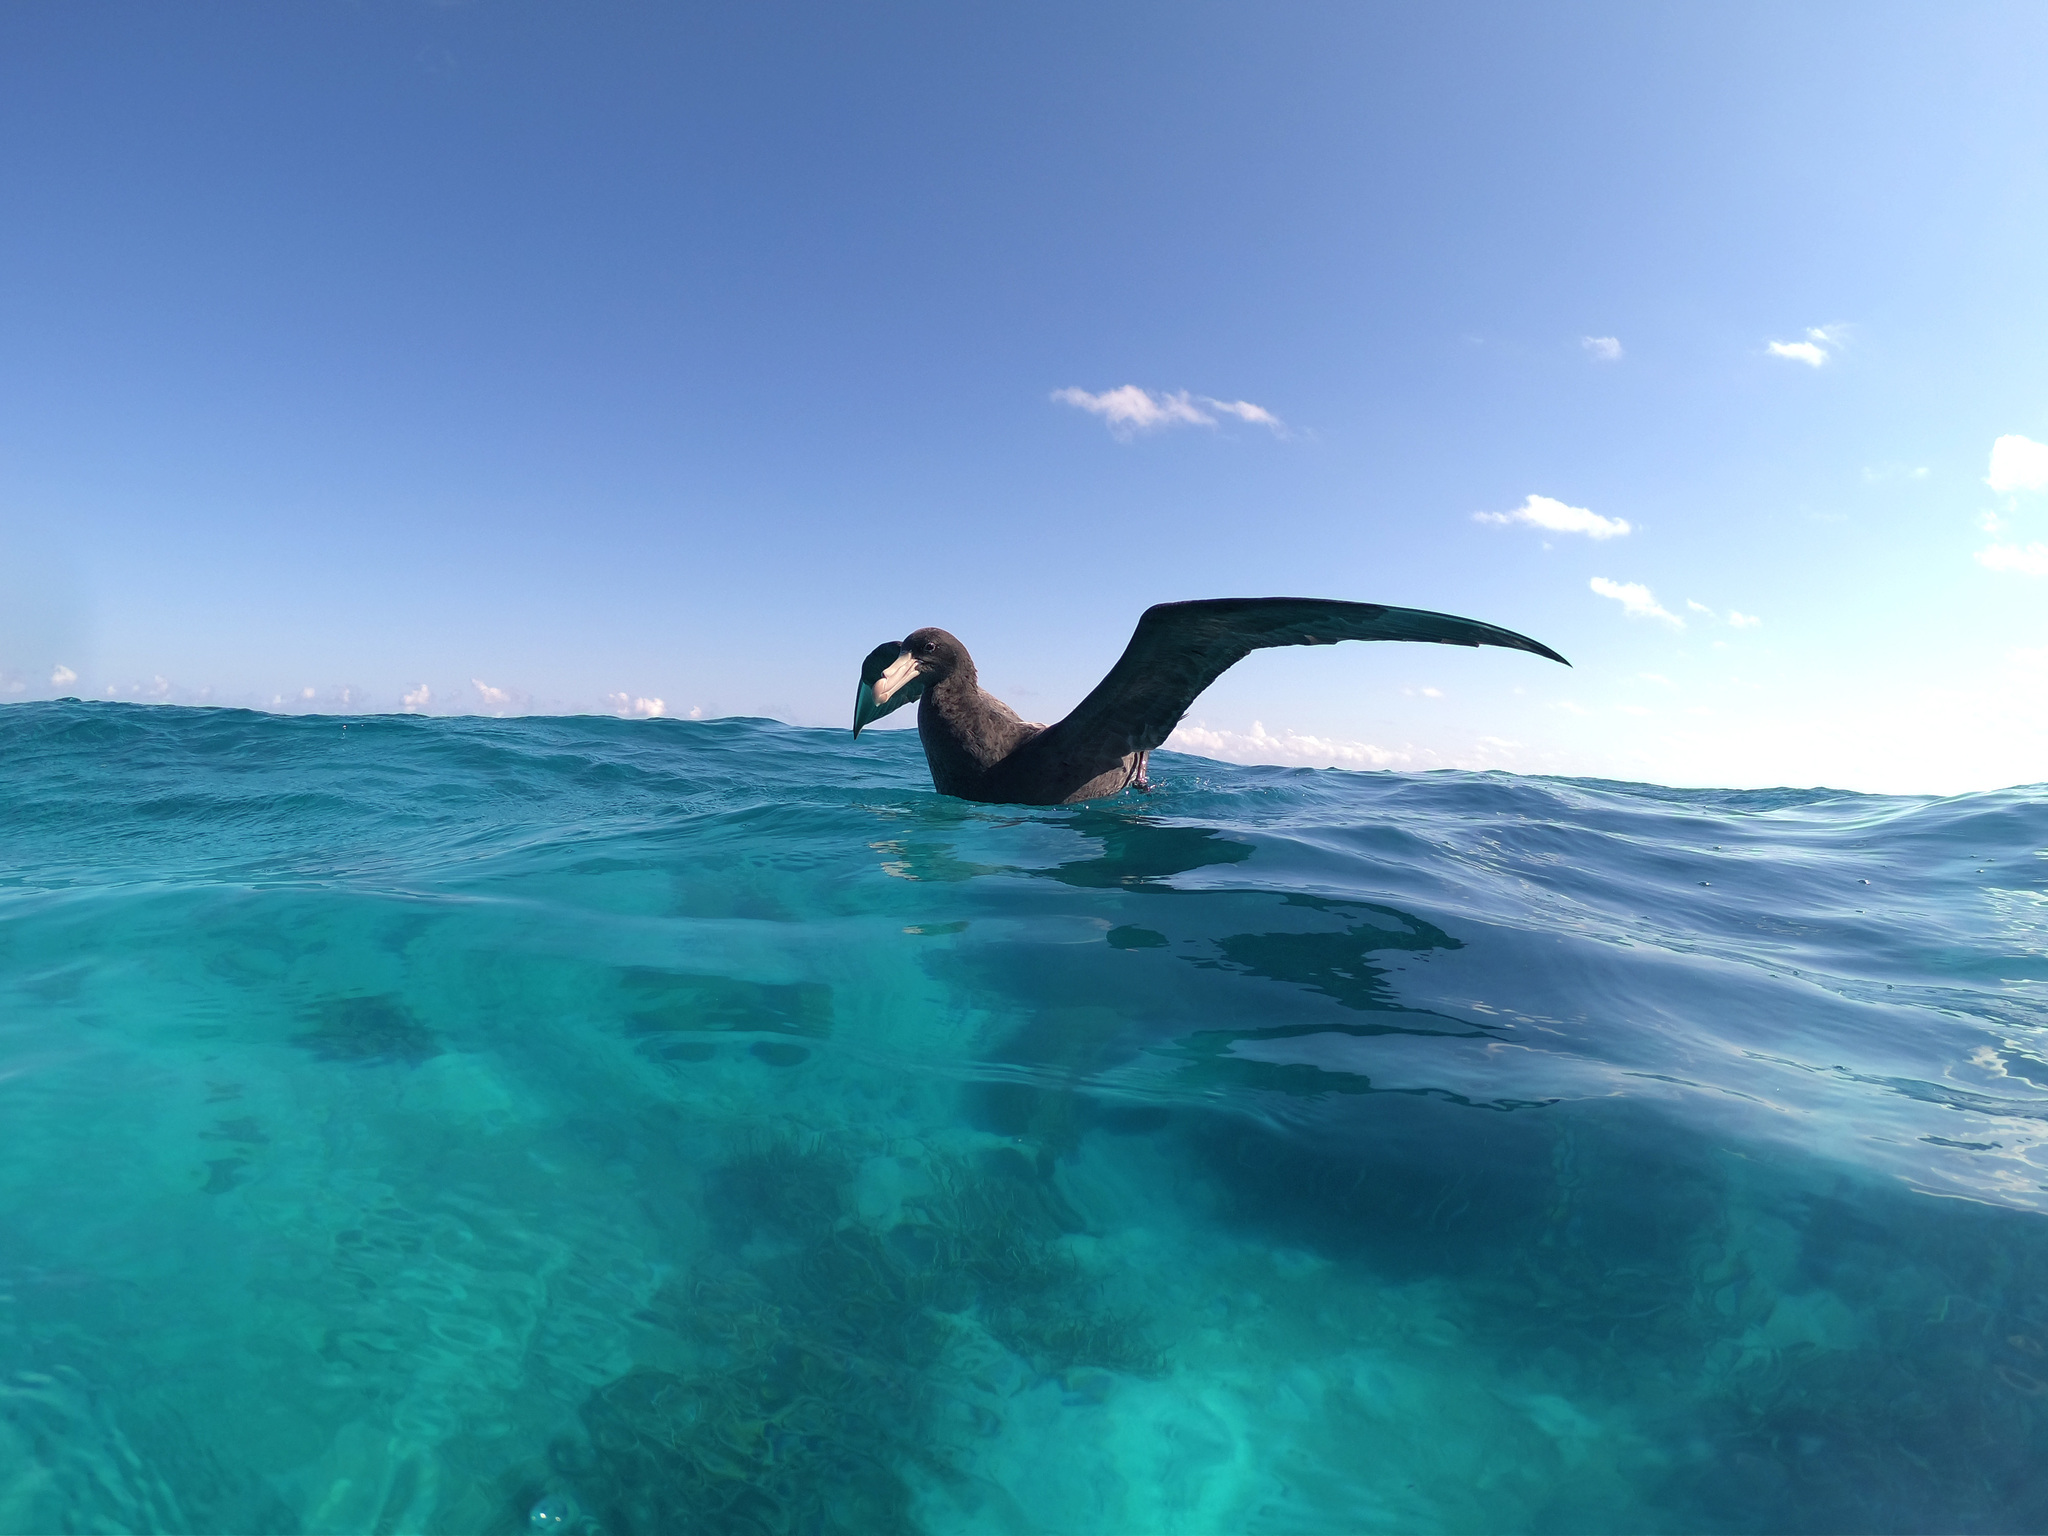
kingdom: Animalia
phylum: Chordata
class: Aves
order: Procellariiformes
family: Procellariidae
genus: Macronectes
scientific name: Macronectes halli
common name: Northern giant petrel
